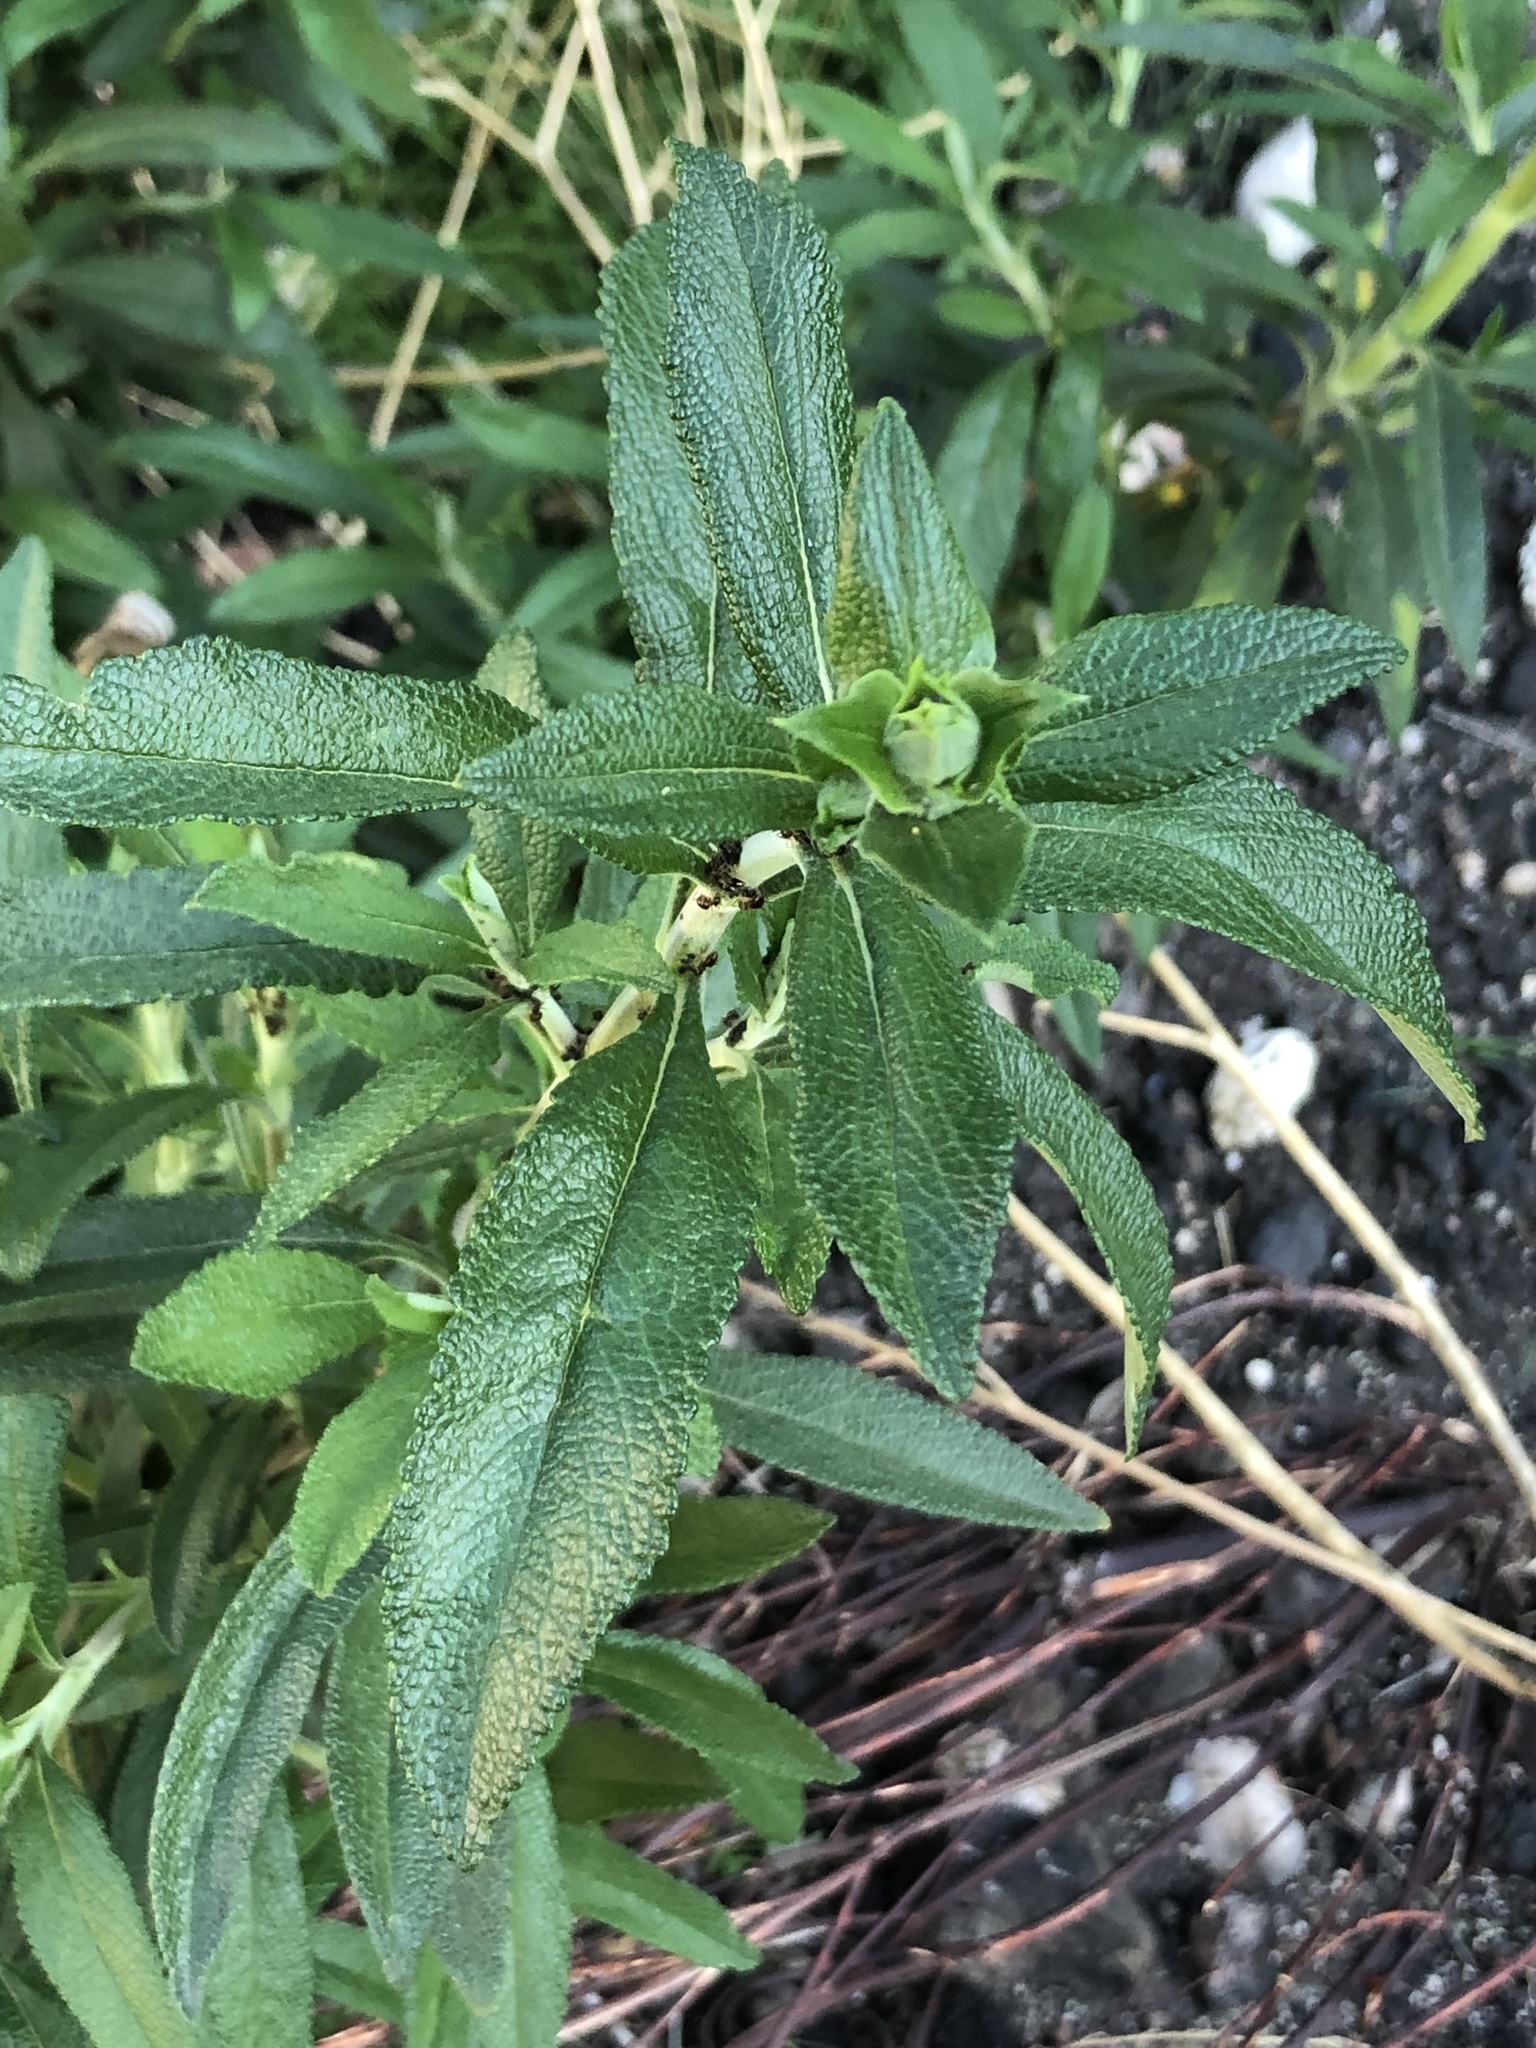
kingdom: Plantae
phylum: Tracheophyta
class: Magnoliopsida
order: Lamiales
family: Lamiaceae
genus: Salvia
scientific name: Salvia mellifera
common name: Black sage
